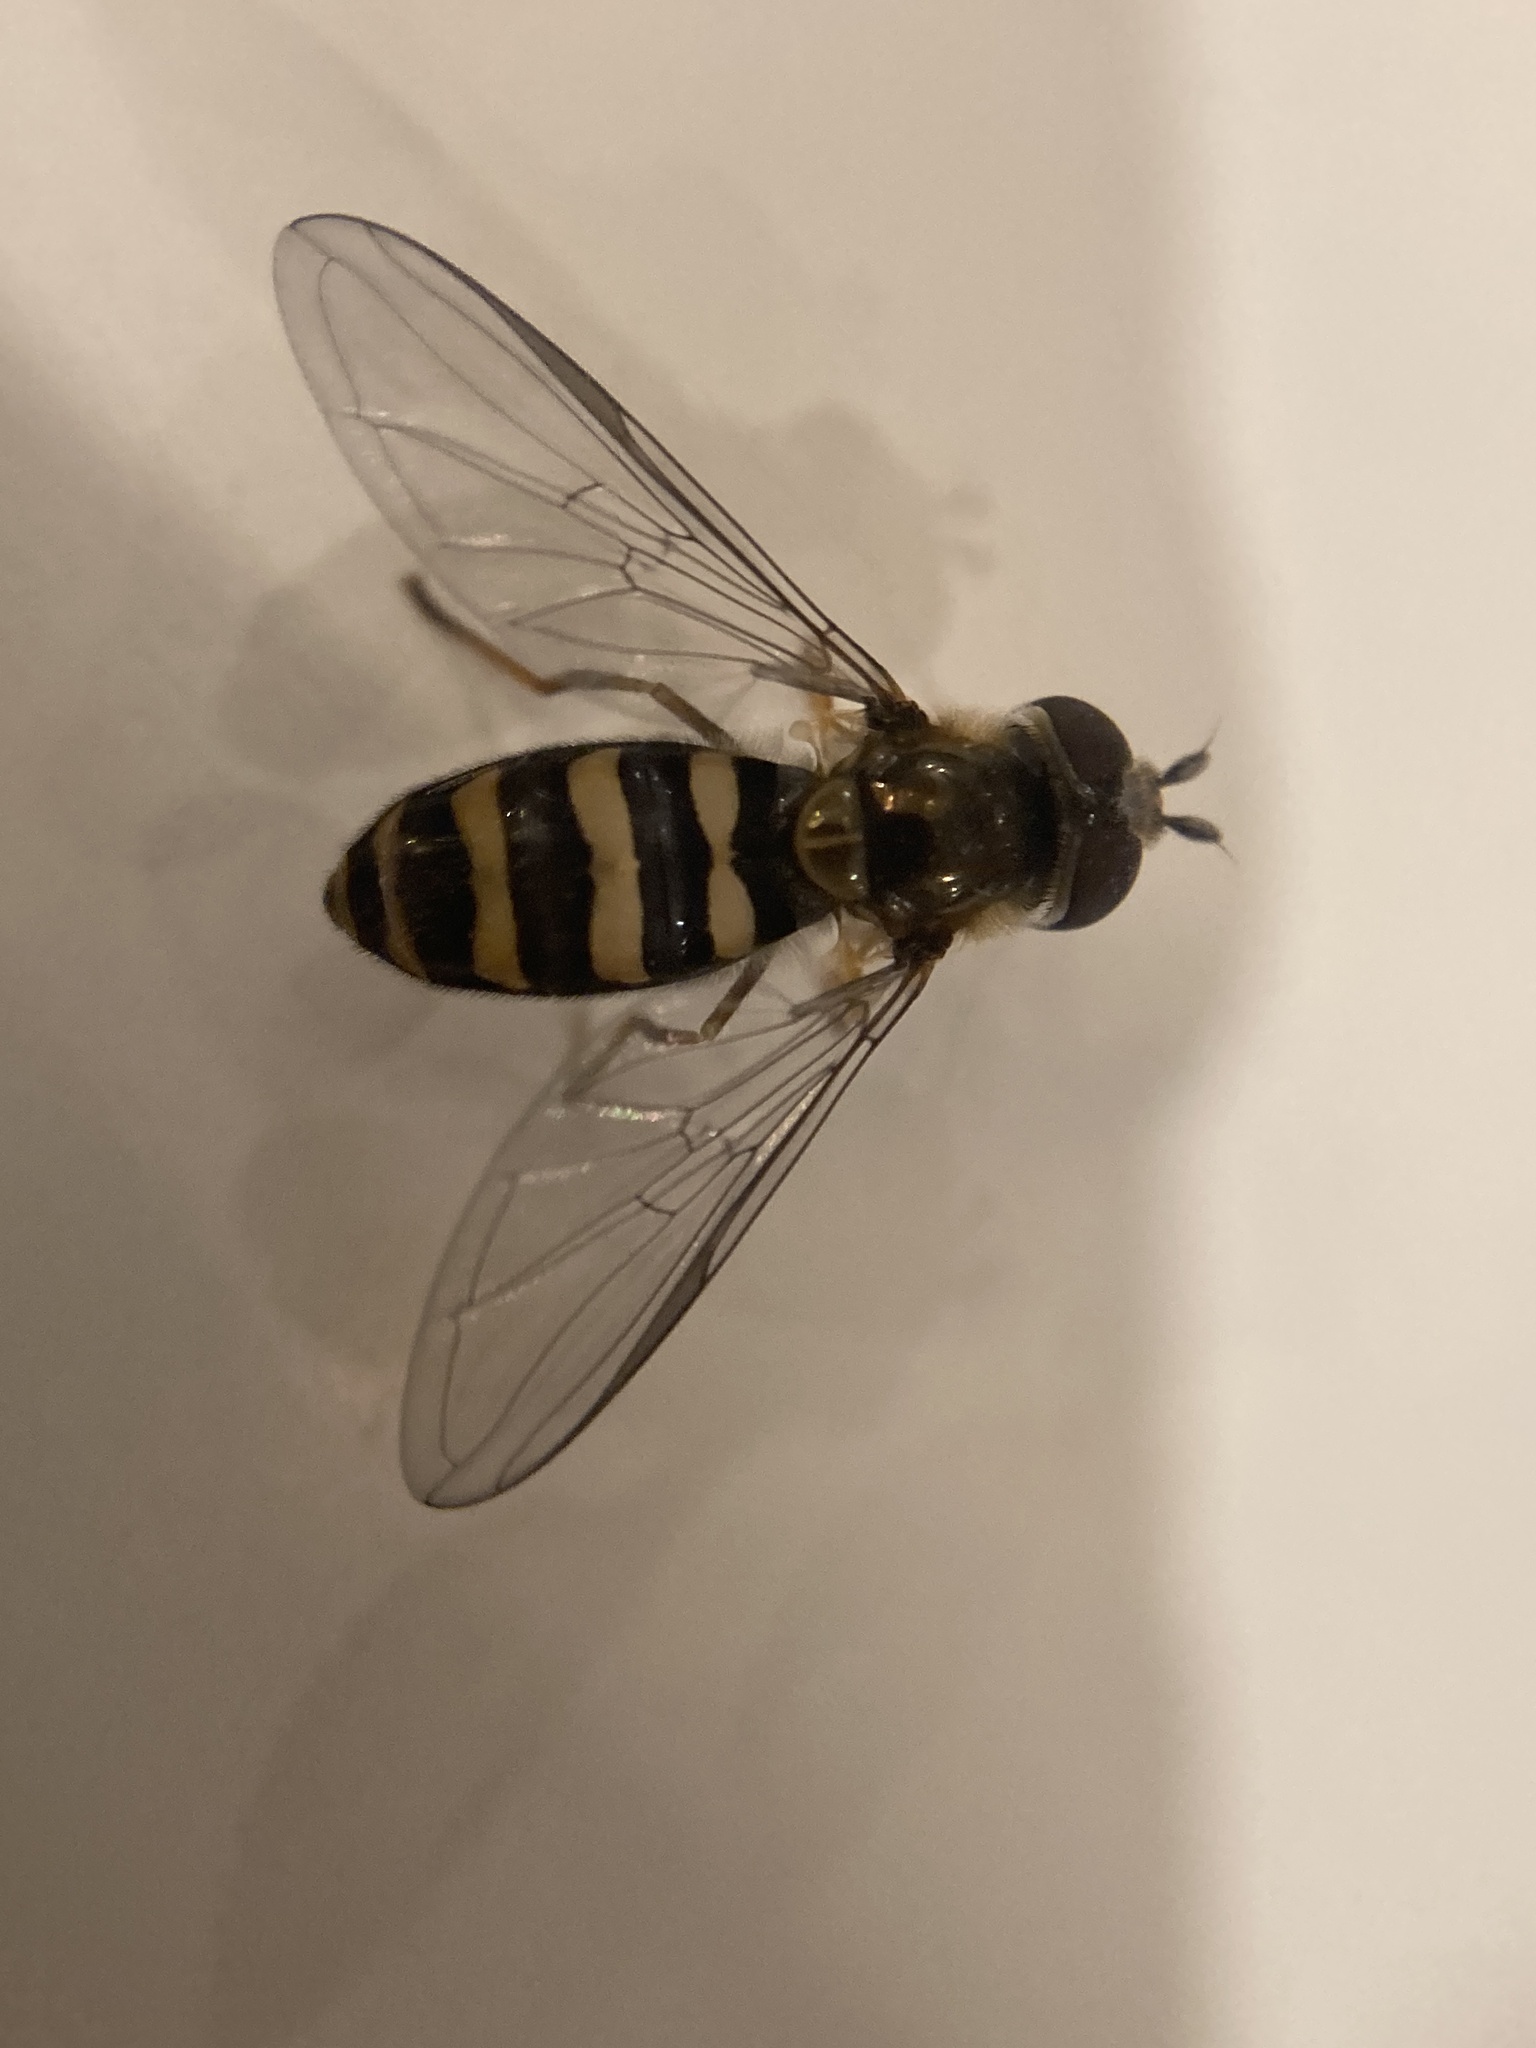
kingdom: Animalia
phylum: Arthropoda
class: Insecta
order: Diptera
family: Syrphidae
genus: Eupeodes
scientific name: Eupeodes
